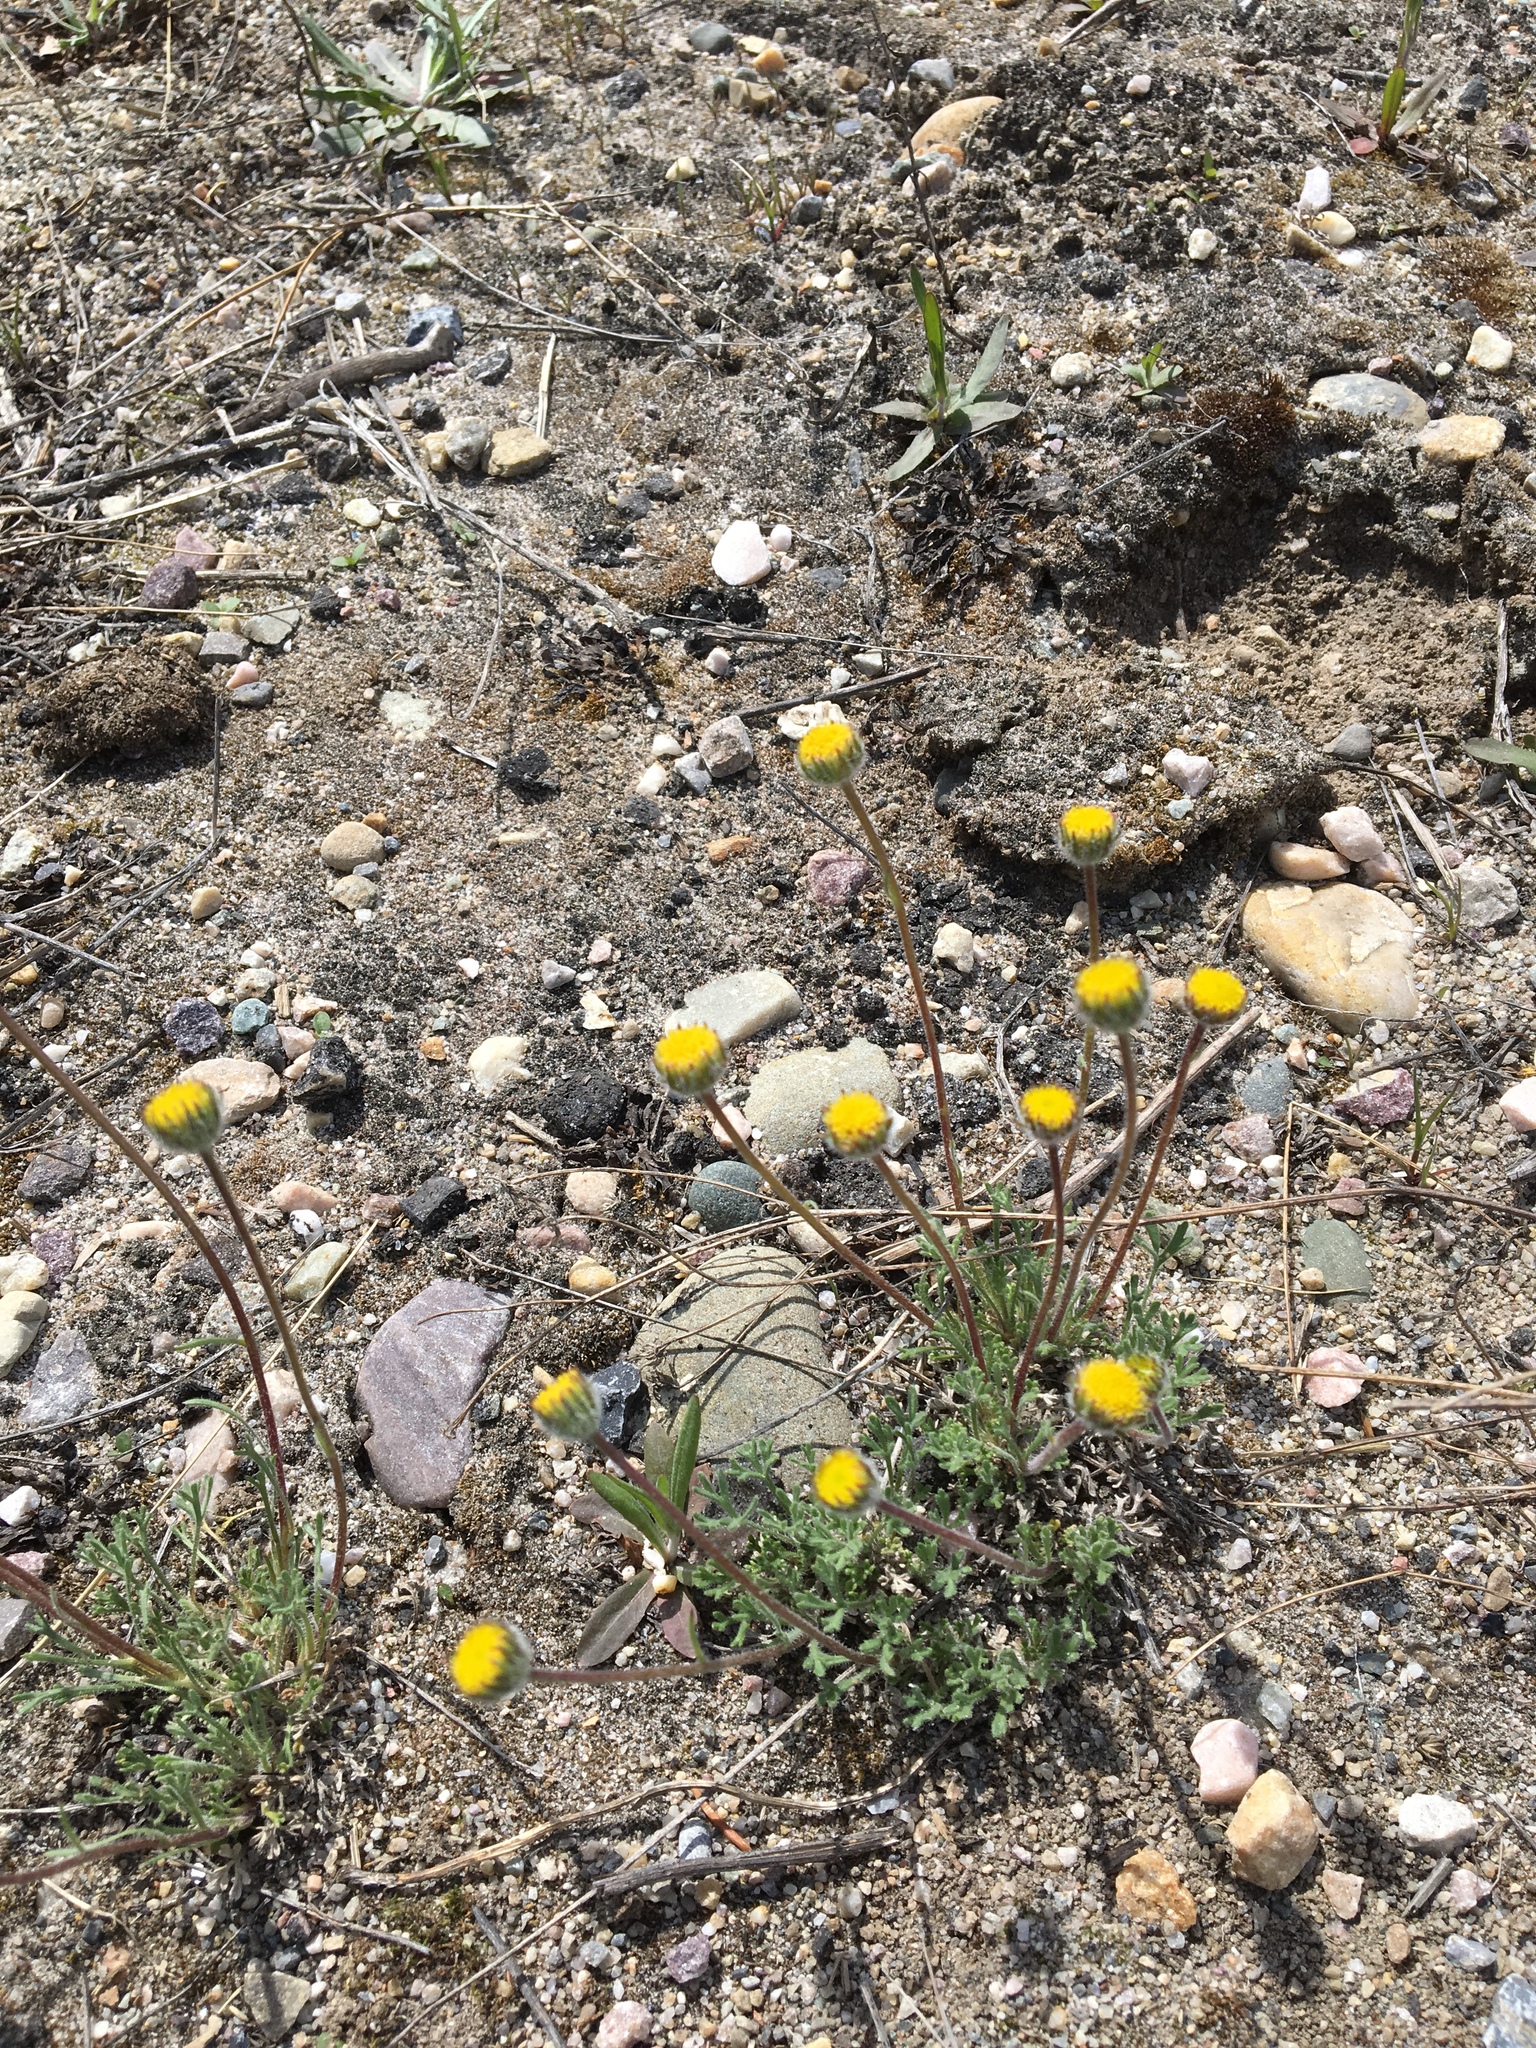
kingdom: Plantae
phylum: Tracheophyta
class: Magnoliopsida
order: Asterales
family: Asteraceae
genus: Erigeron
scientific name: Erigeron compositus
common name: Dwarf mountain fleabane
